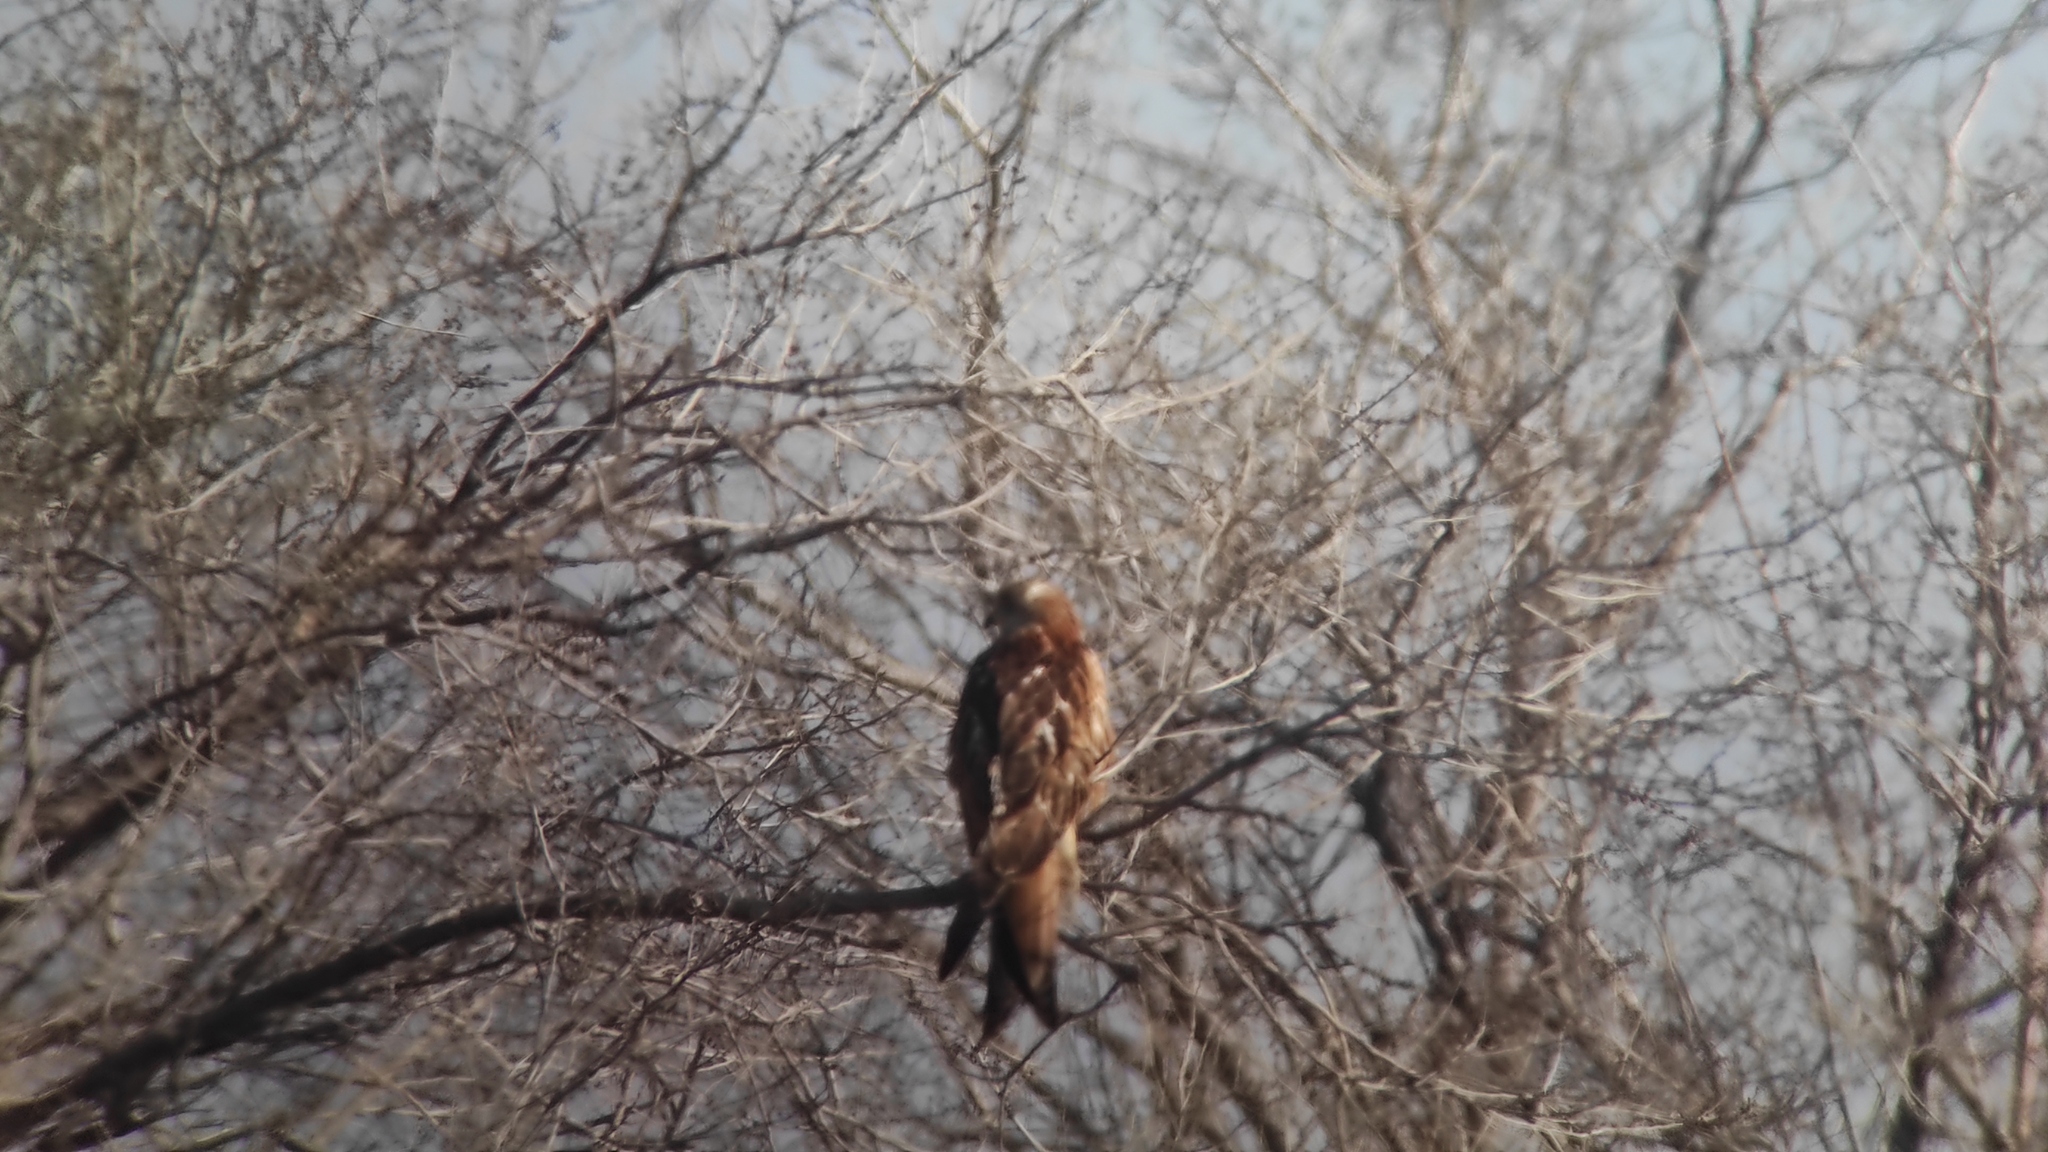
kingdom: Animalia
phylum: Chordata
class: Aves
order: Accipitriformes
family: Accipitridae
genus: Milvus
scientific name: Milvus milvus
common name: Red kite
